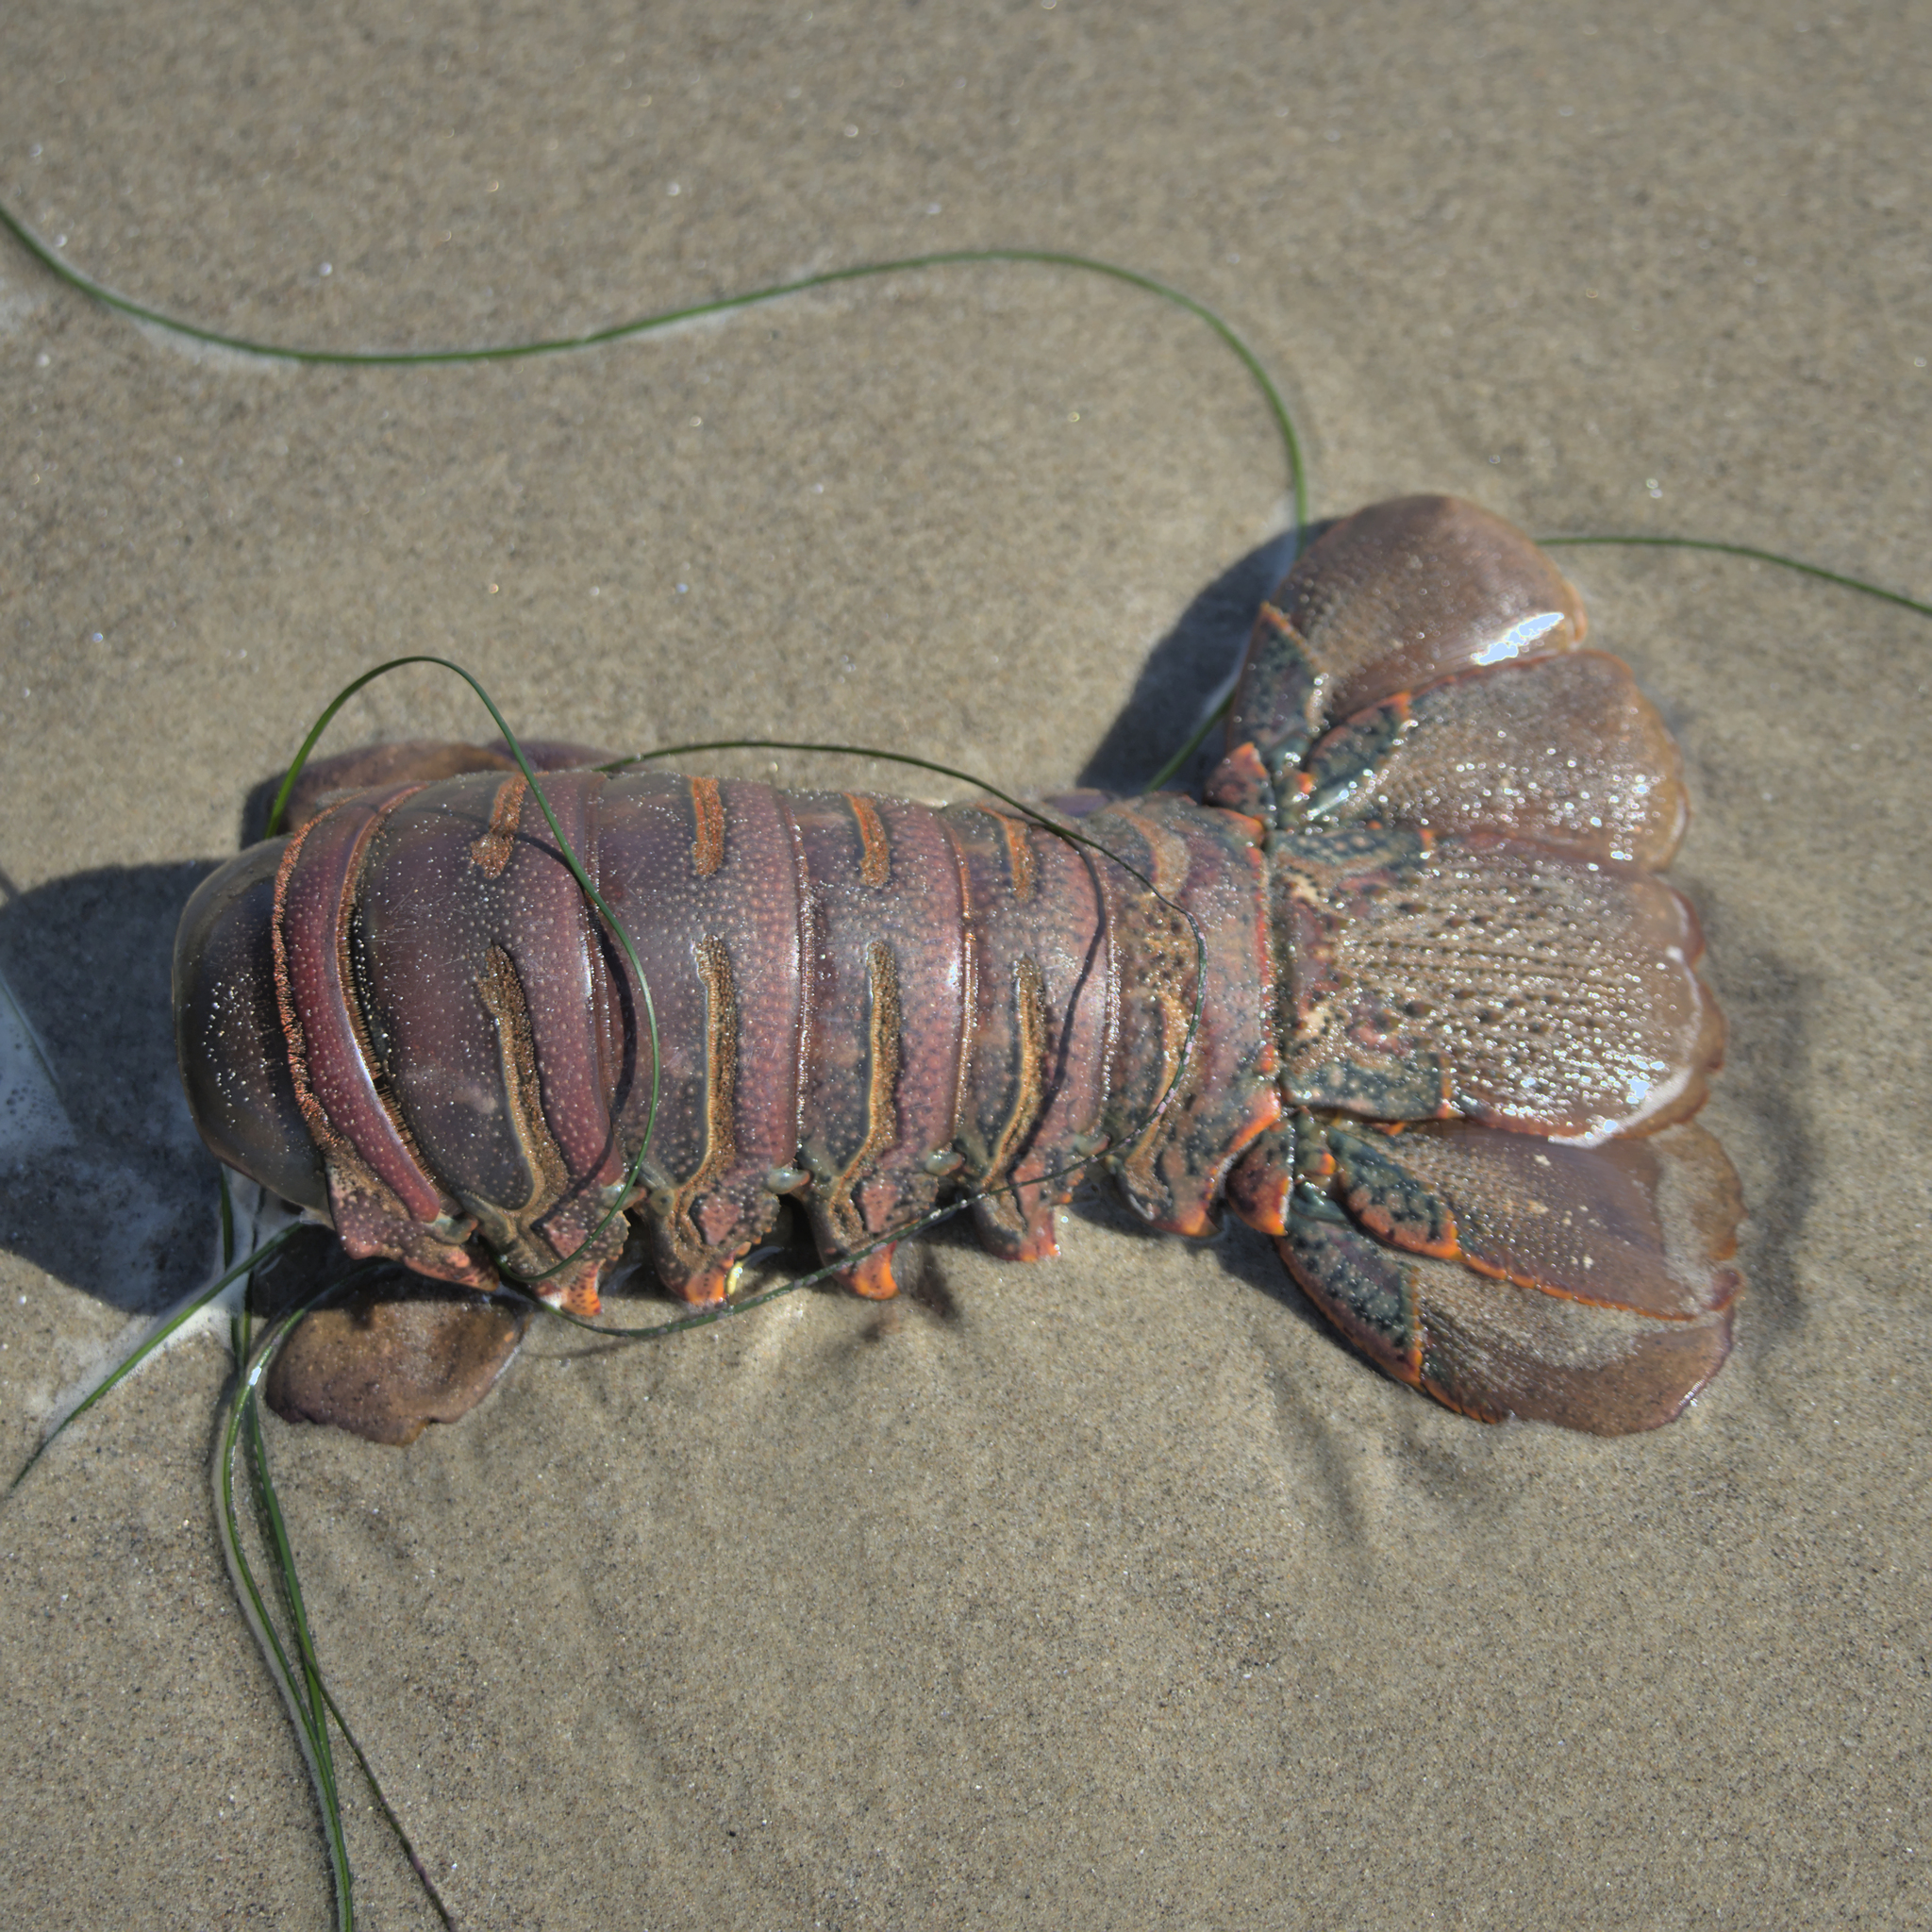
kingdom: Animalia
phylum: Arthropoda
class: Malacostraca
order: Decapoda
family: Palinuridae
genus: Panulirus
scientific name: Panulirus interruptus
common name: California spiny lobster
